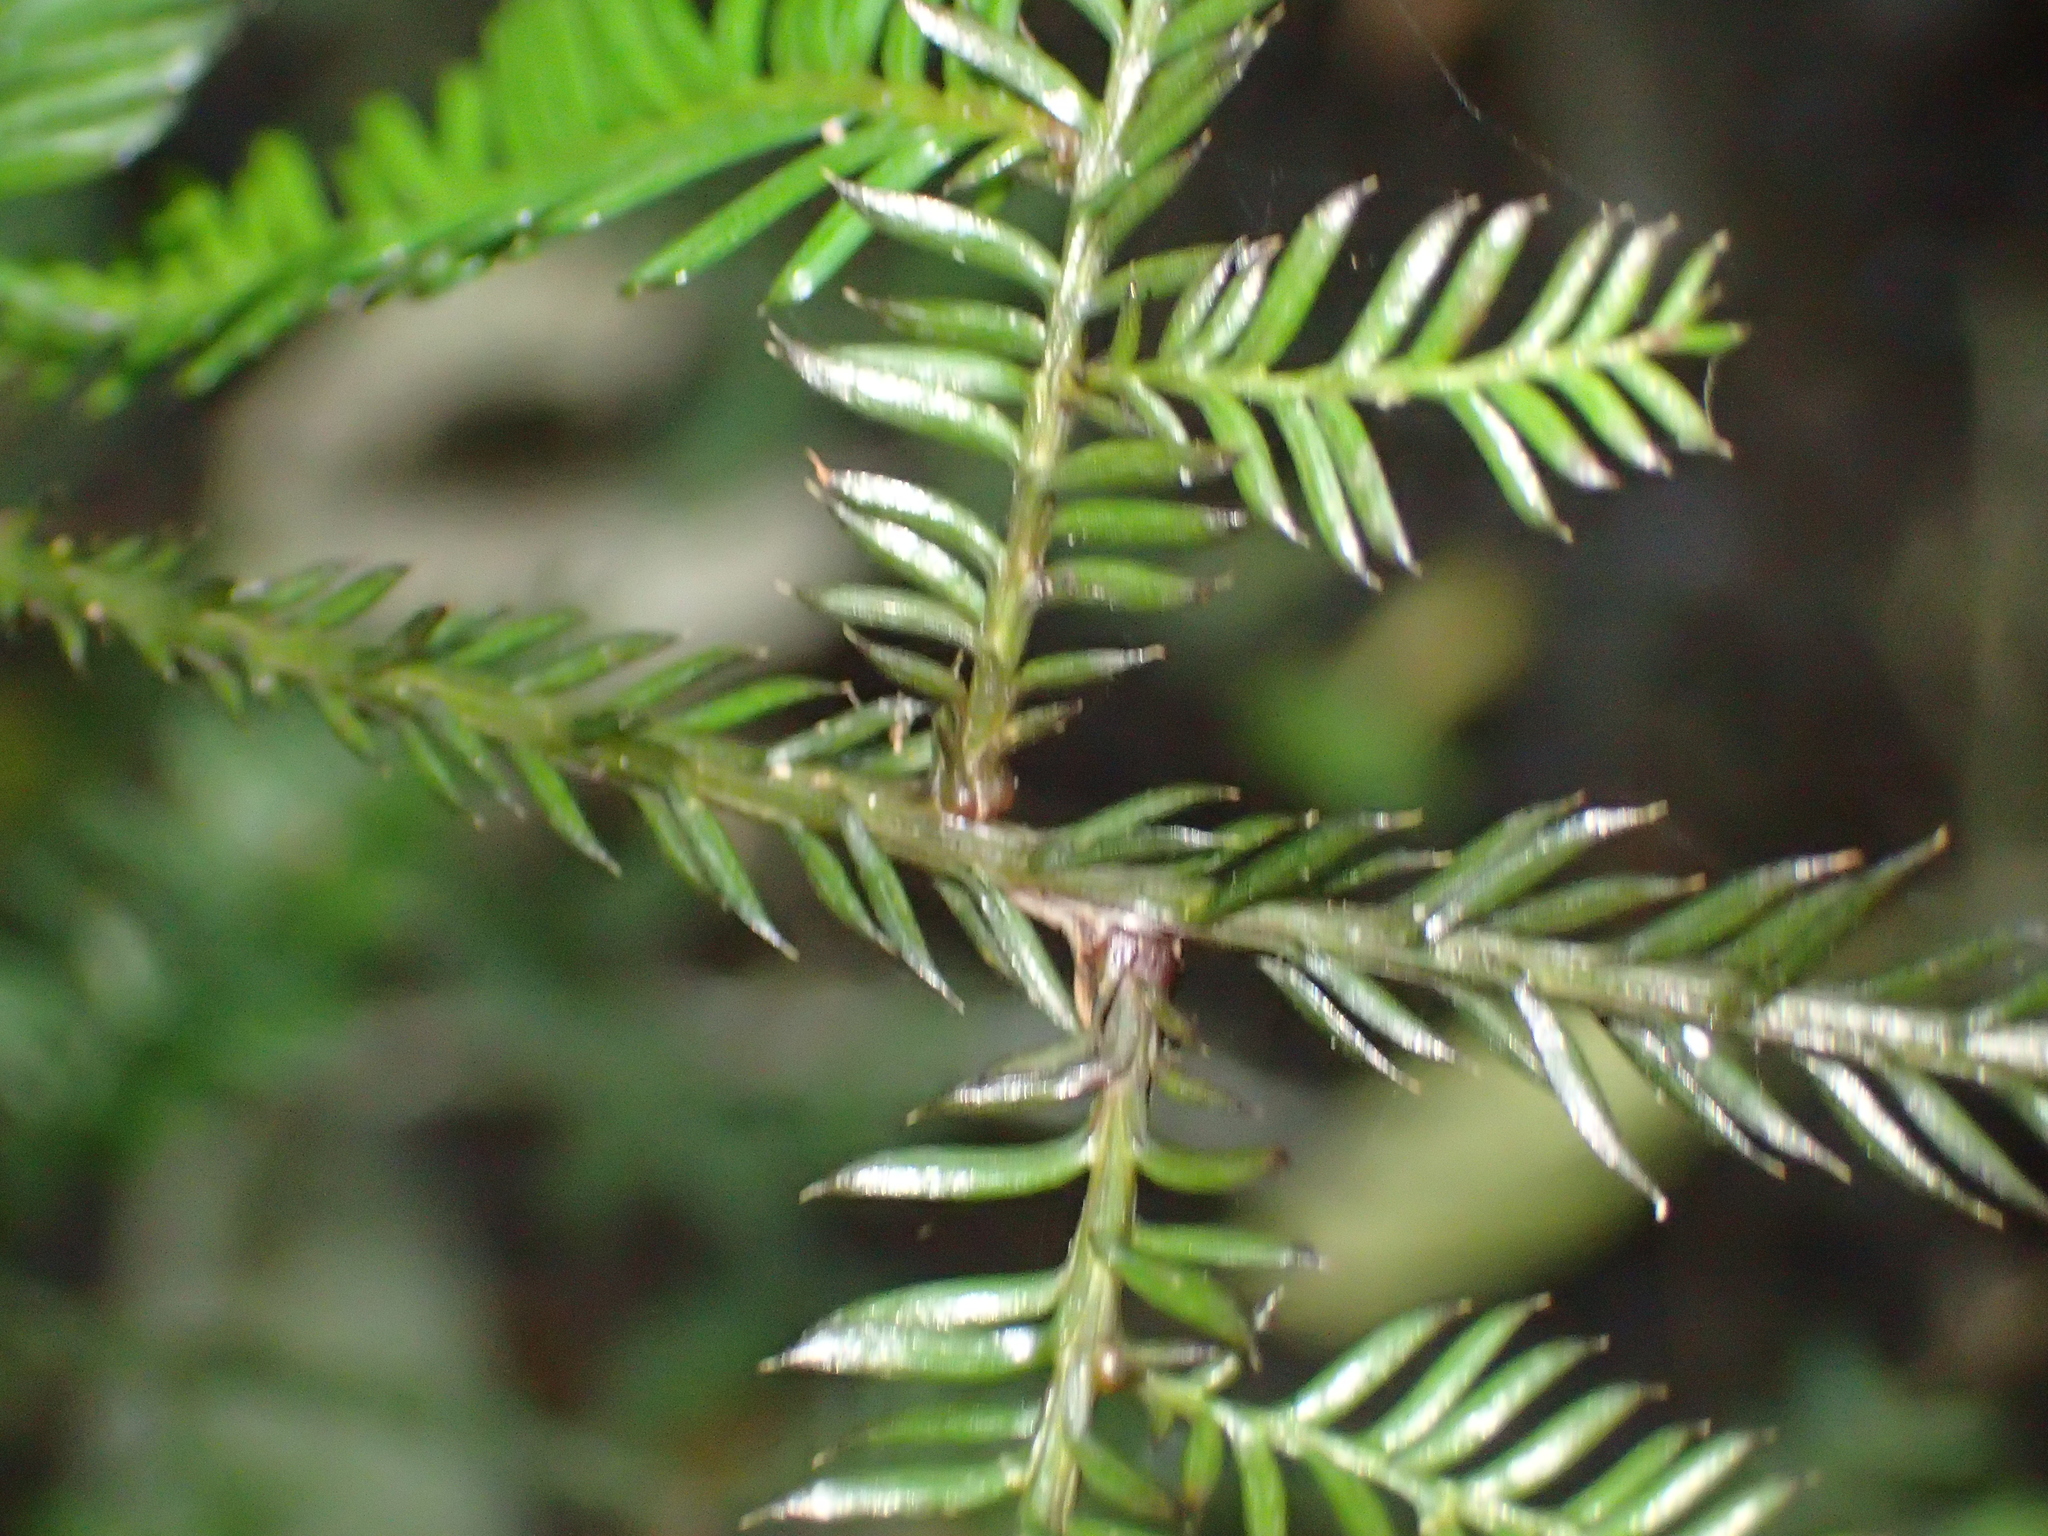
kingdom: Plantae
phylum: Tracheophyta
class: Pinopsida
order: Pinales
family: Podocarpaceae
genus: Dacrycarpus
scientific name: Dacrycarpus dacrydioides
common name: White pine
